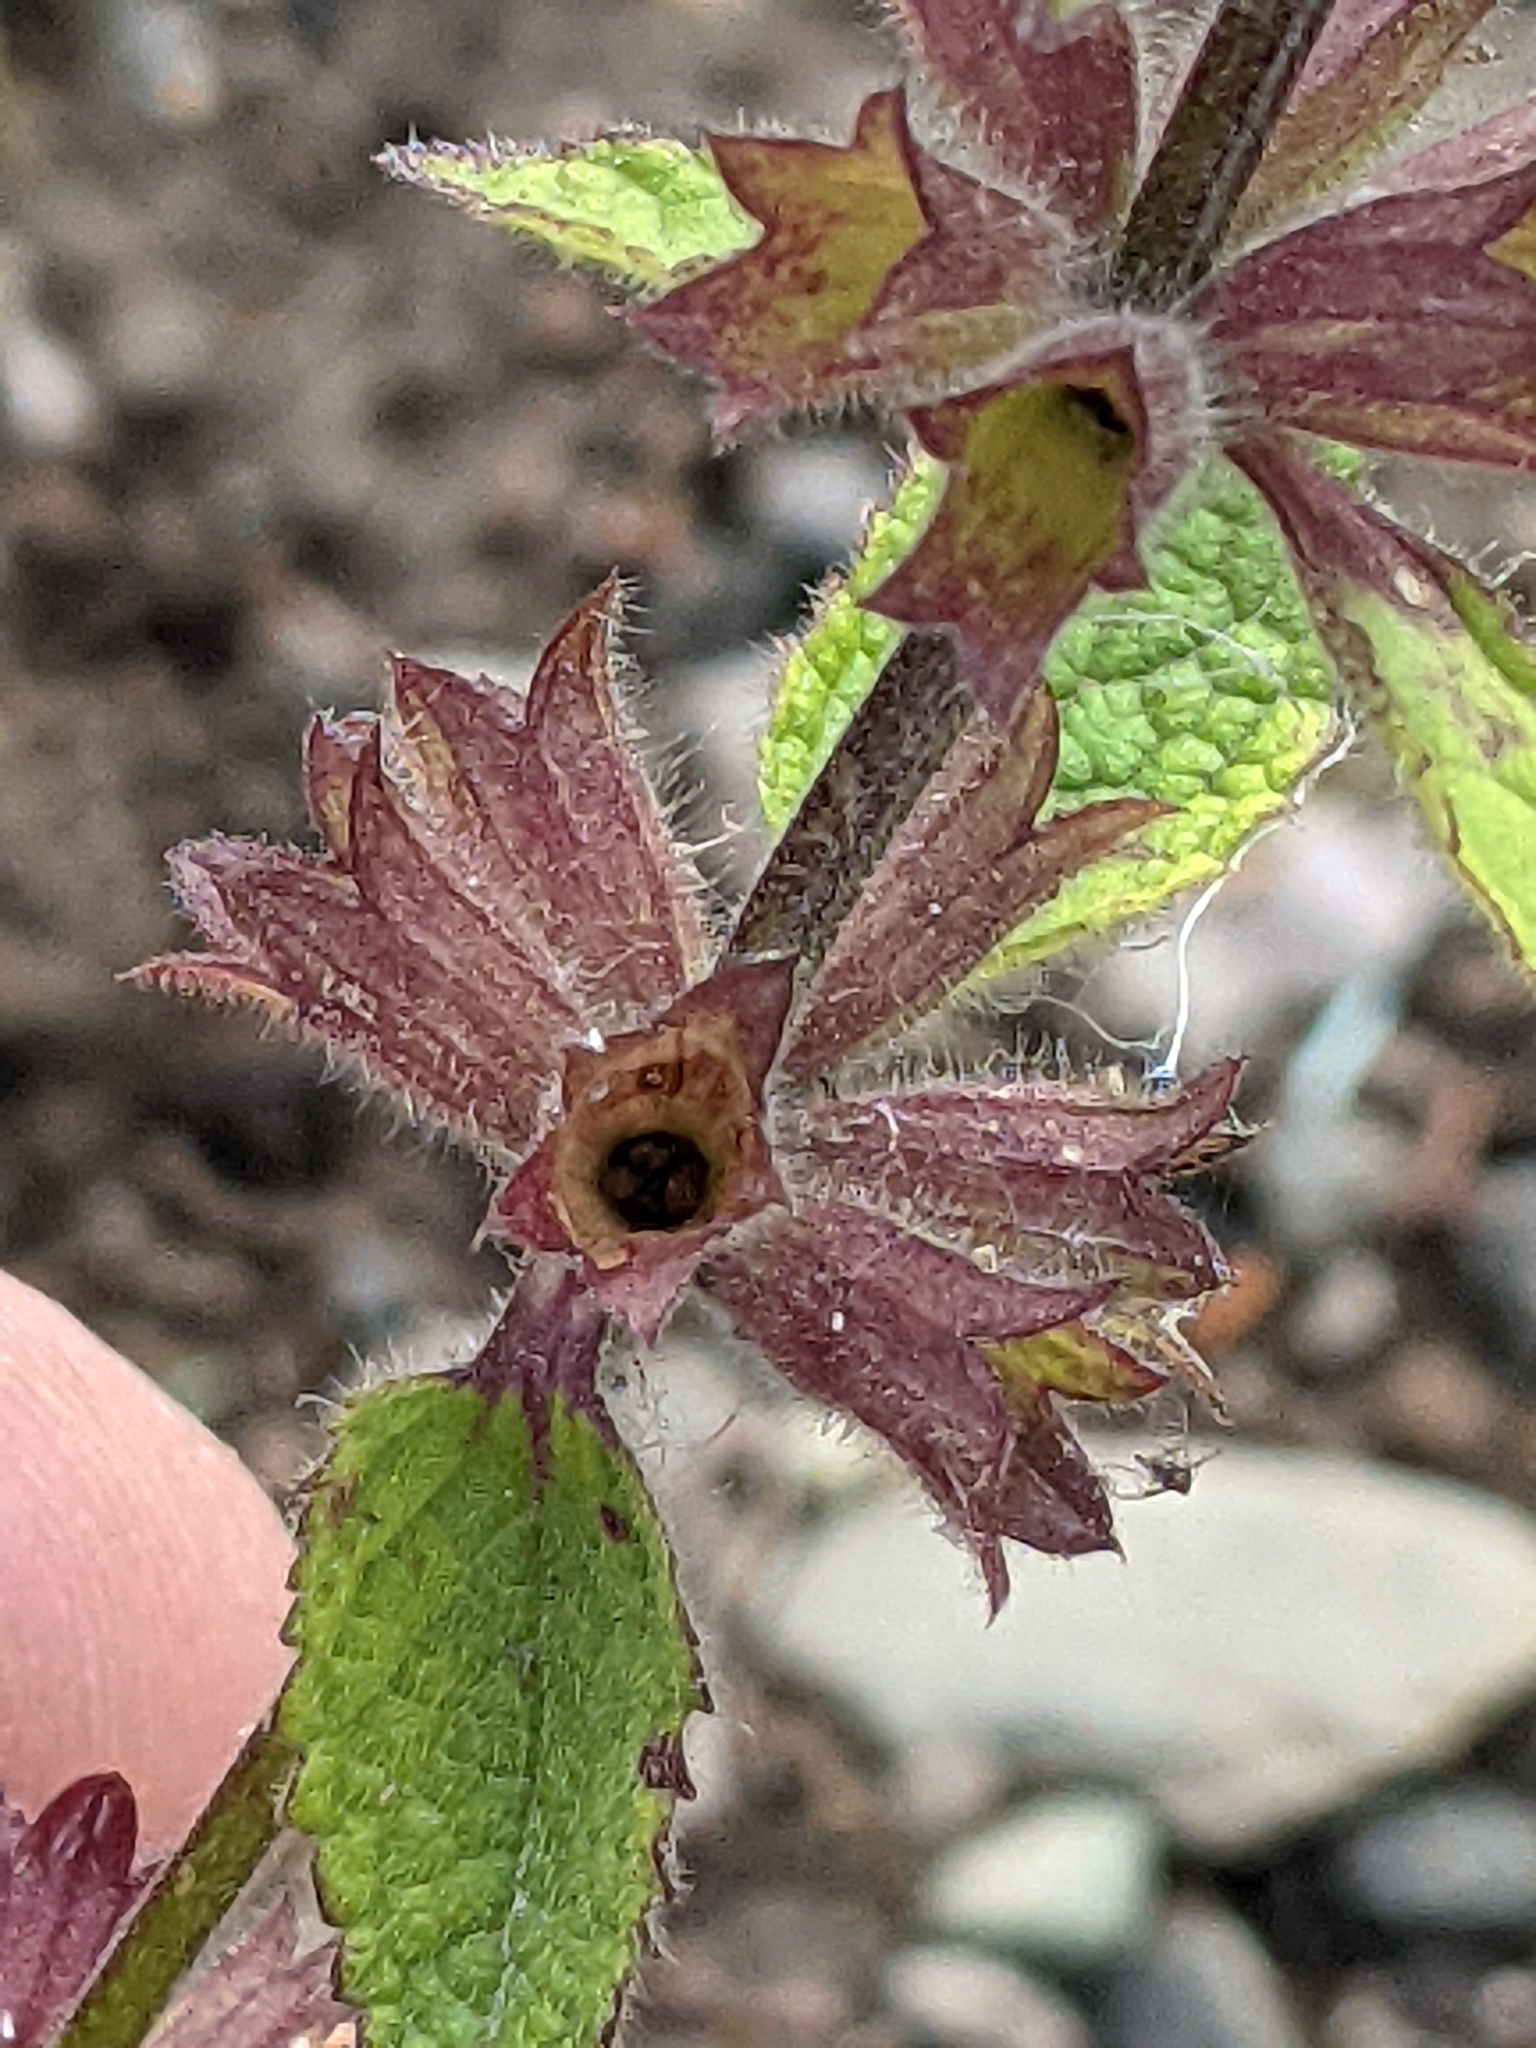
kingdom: Plantae
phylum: Tracheophyta
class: Magnoliopsida
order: Lamiales
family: Lamiaceae
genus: Stachys
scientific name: Stachys chamissonis
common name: Coastal hedge-nettle
